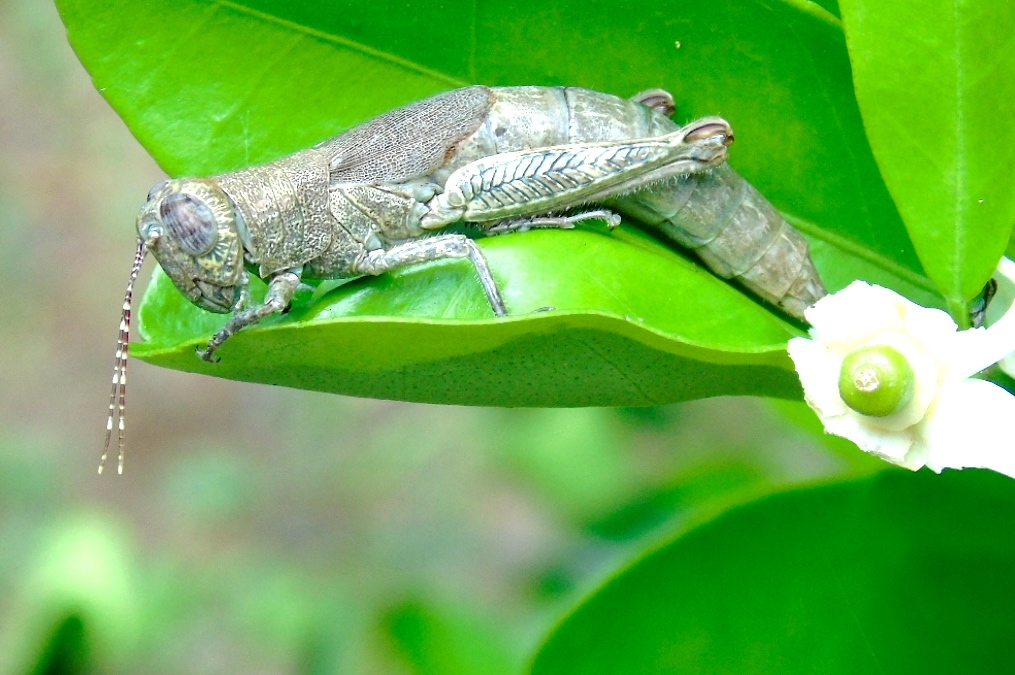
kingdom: Animalia
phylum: Arthropoda
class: Insecta
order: Orthoptera
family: Acrididae
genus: Proctolabus
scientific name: Proctolabus cerciatus
